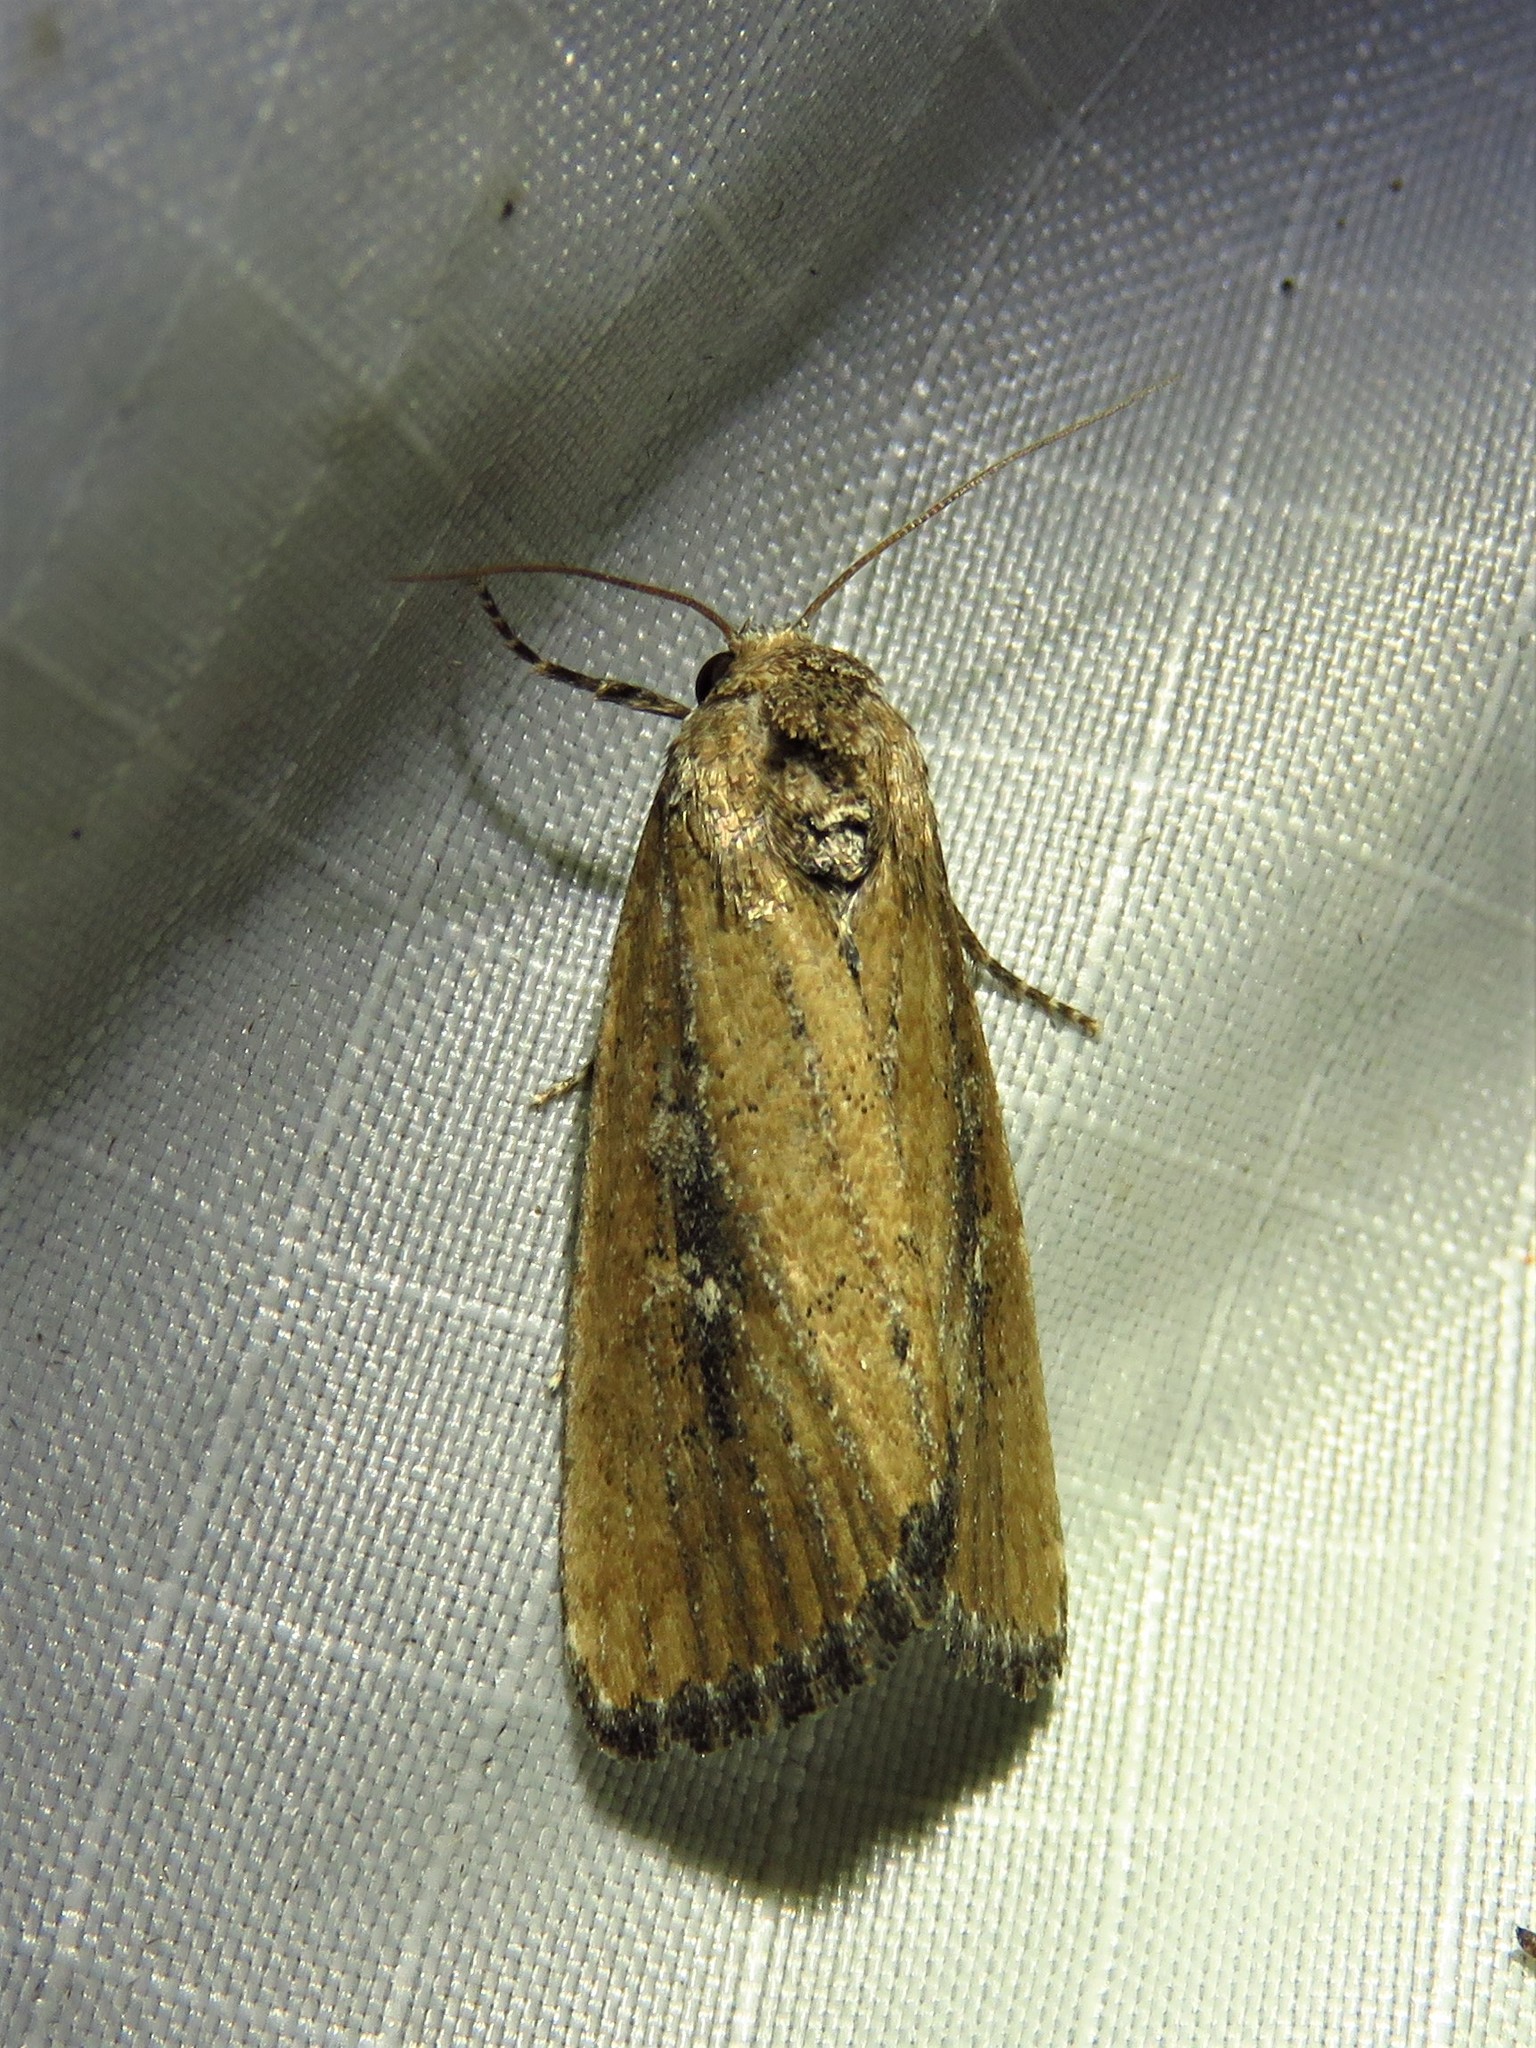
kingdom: Animalia
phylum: Arthropoda
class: Insecta
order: Lepidoptera
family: Noctuidae
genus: Condica
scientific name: Condica videns
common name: White-dotted groundling
